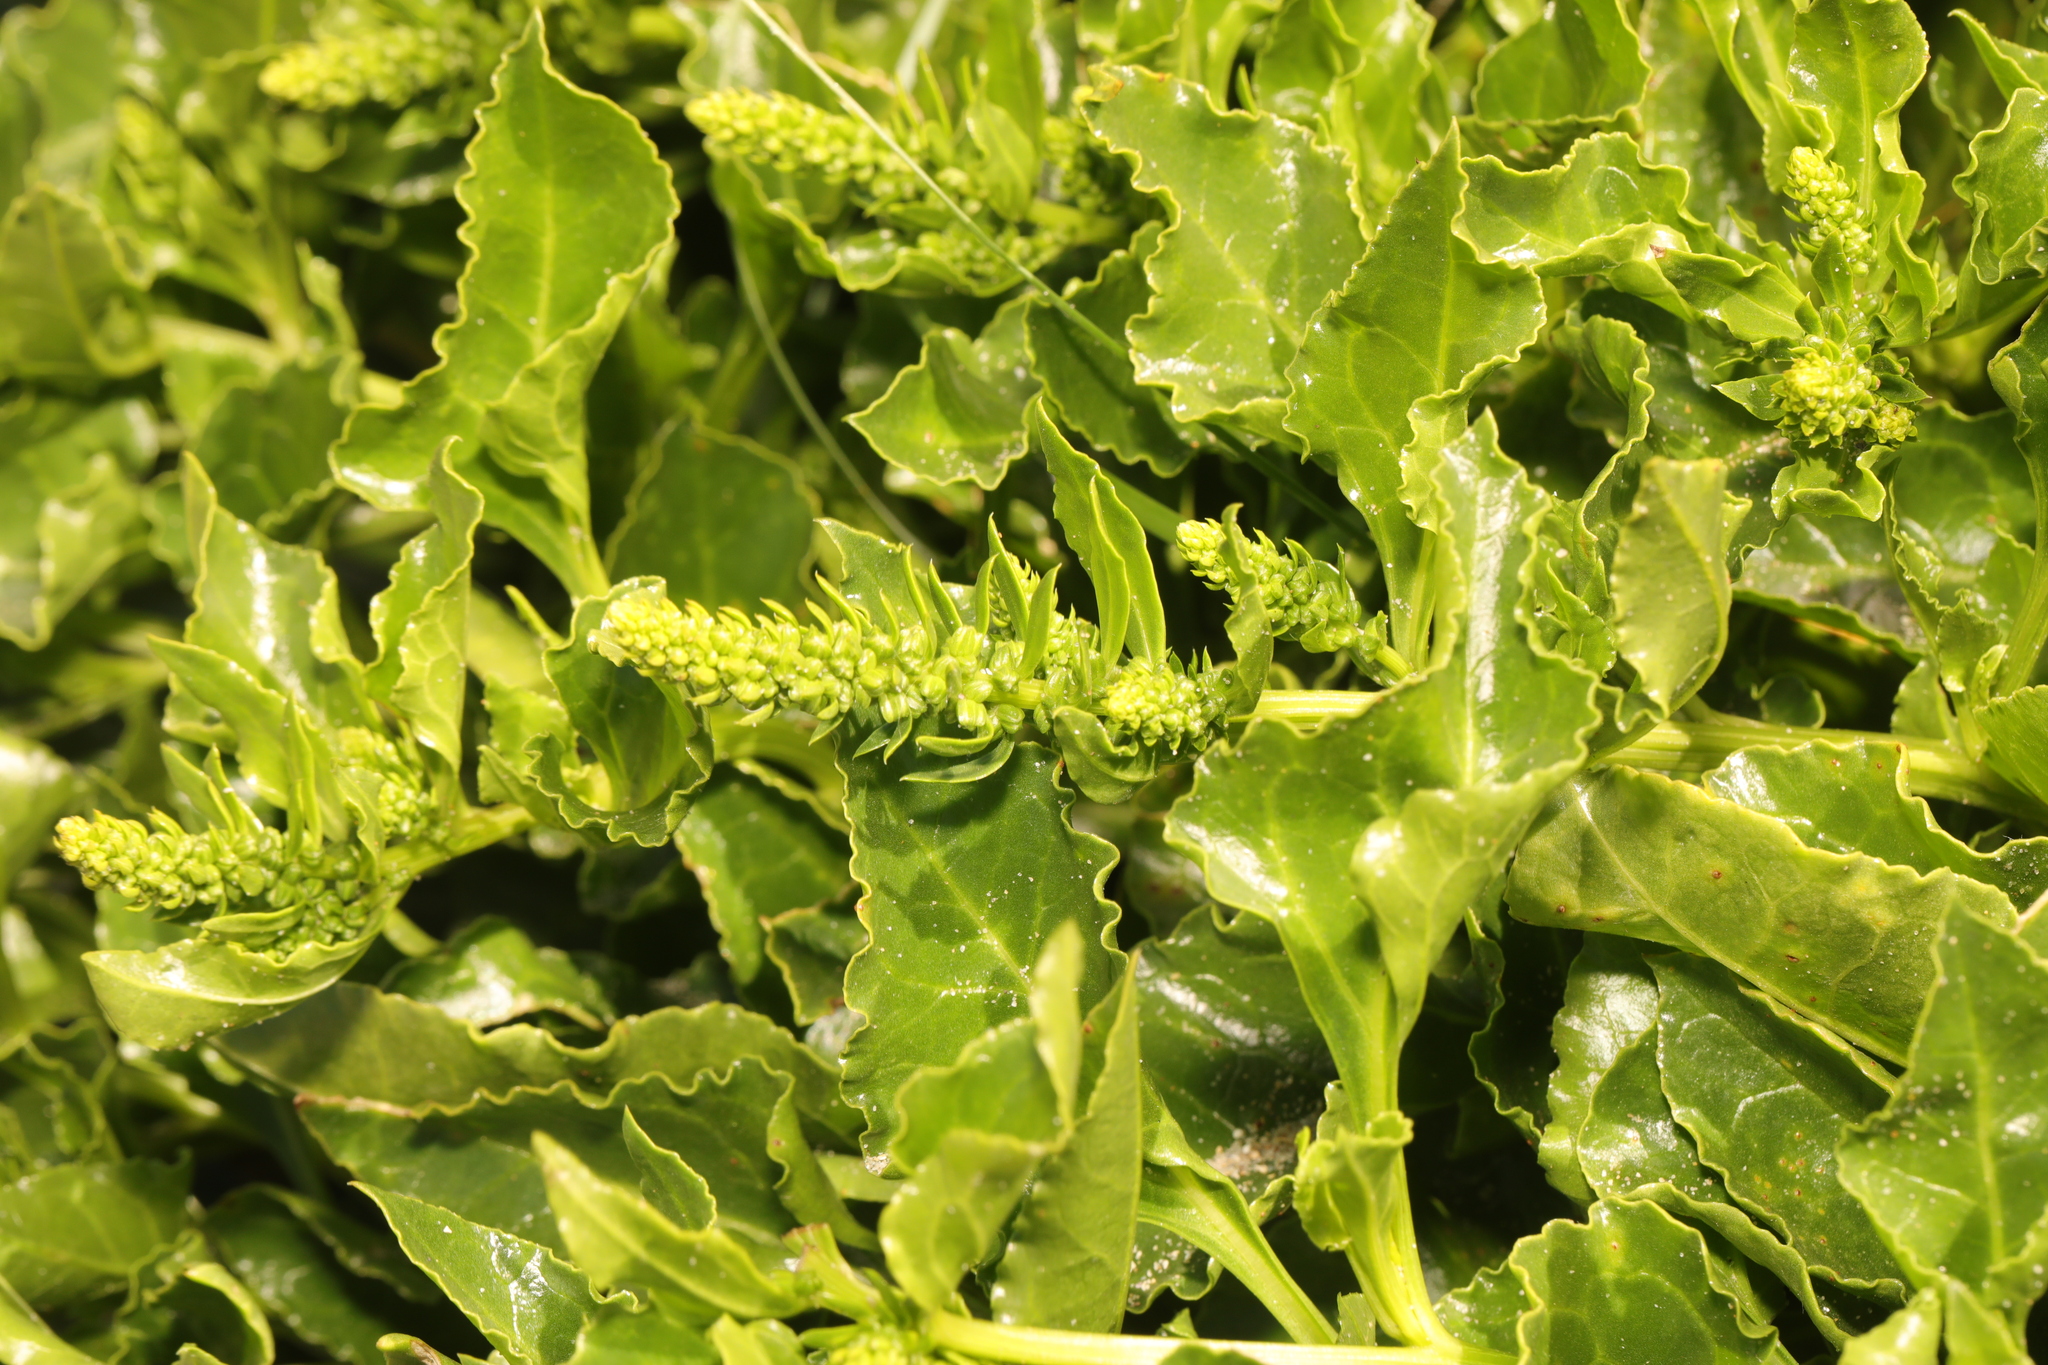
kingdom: Plantae
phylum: Tracheophyta
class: Magnoliopsida
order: Caryophyllales
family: Amaranthaceae
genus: Beta
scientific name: Beta vulgaris
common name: Beet
